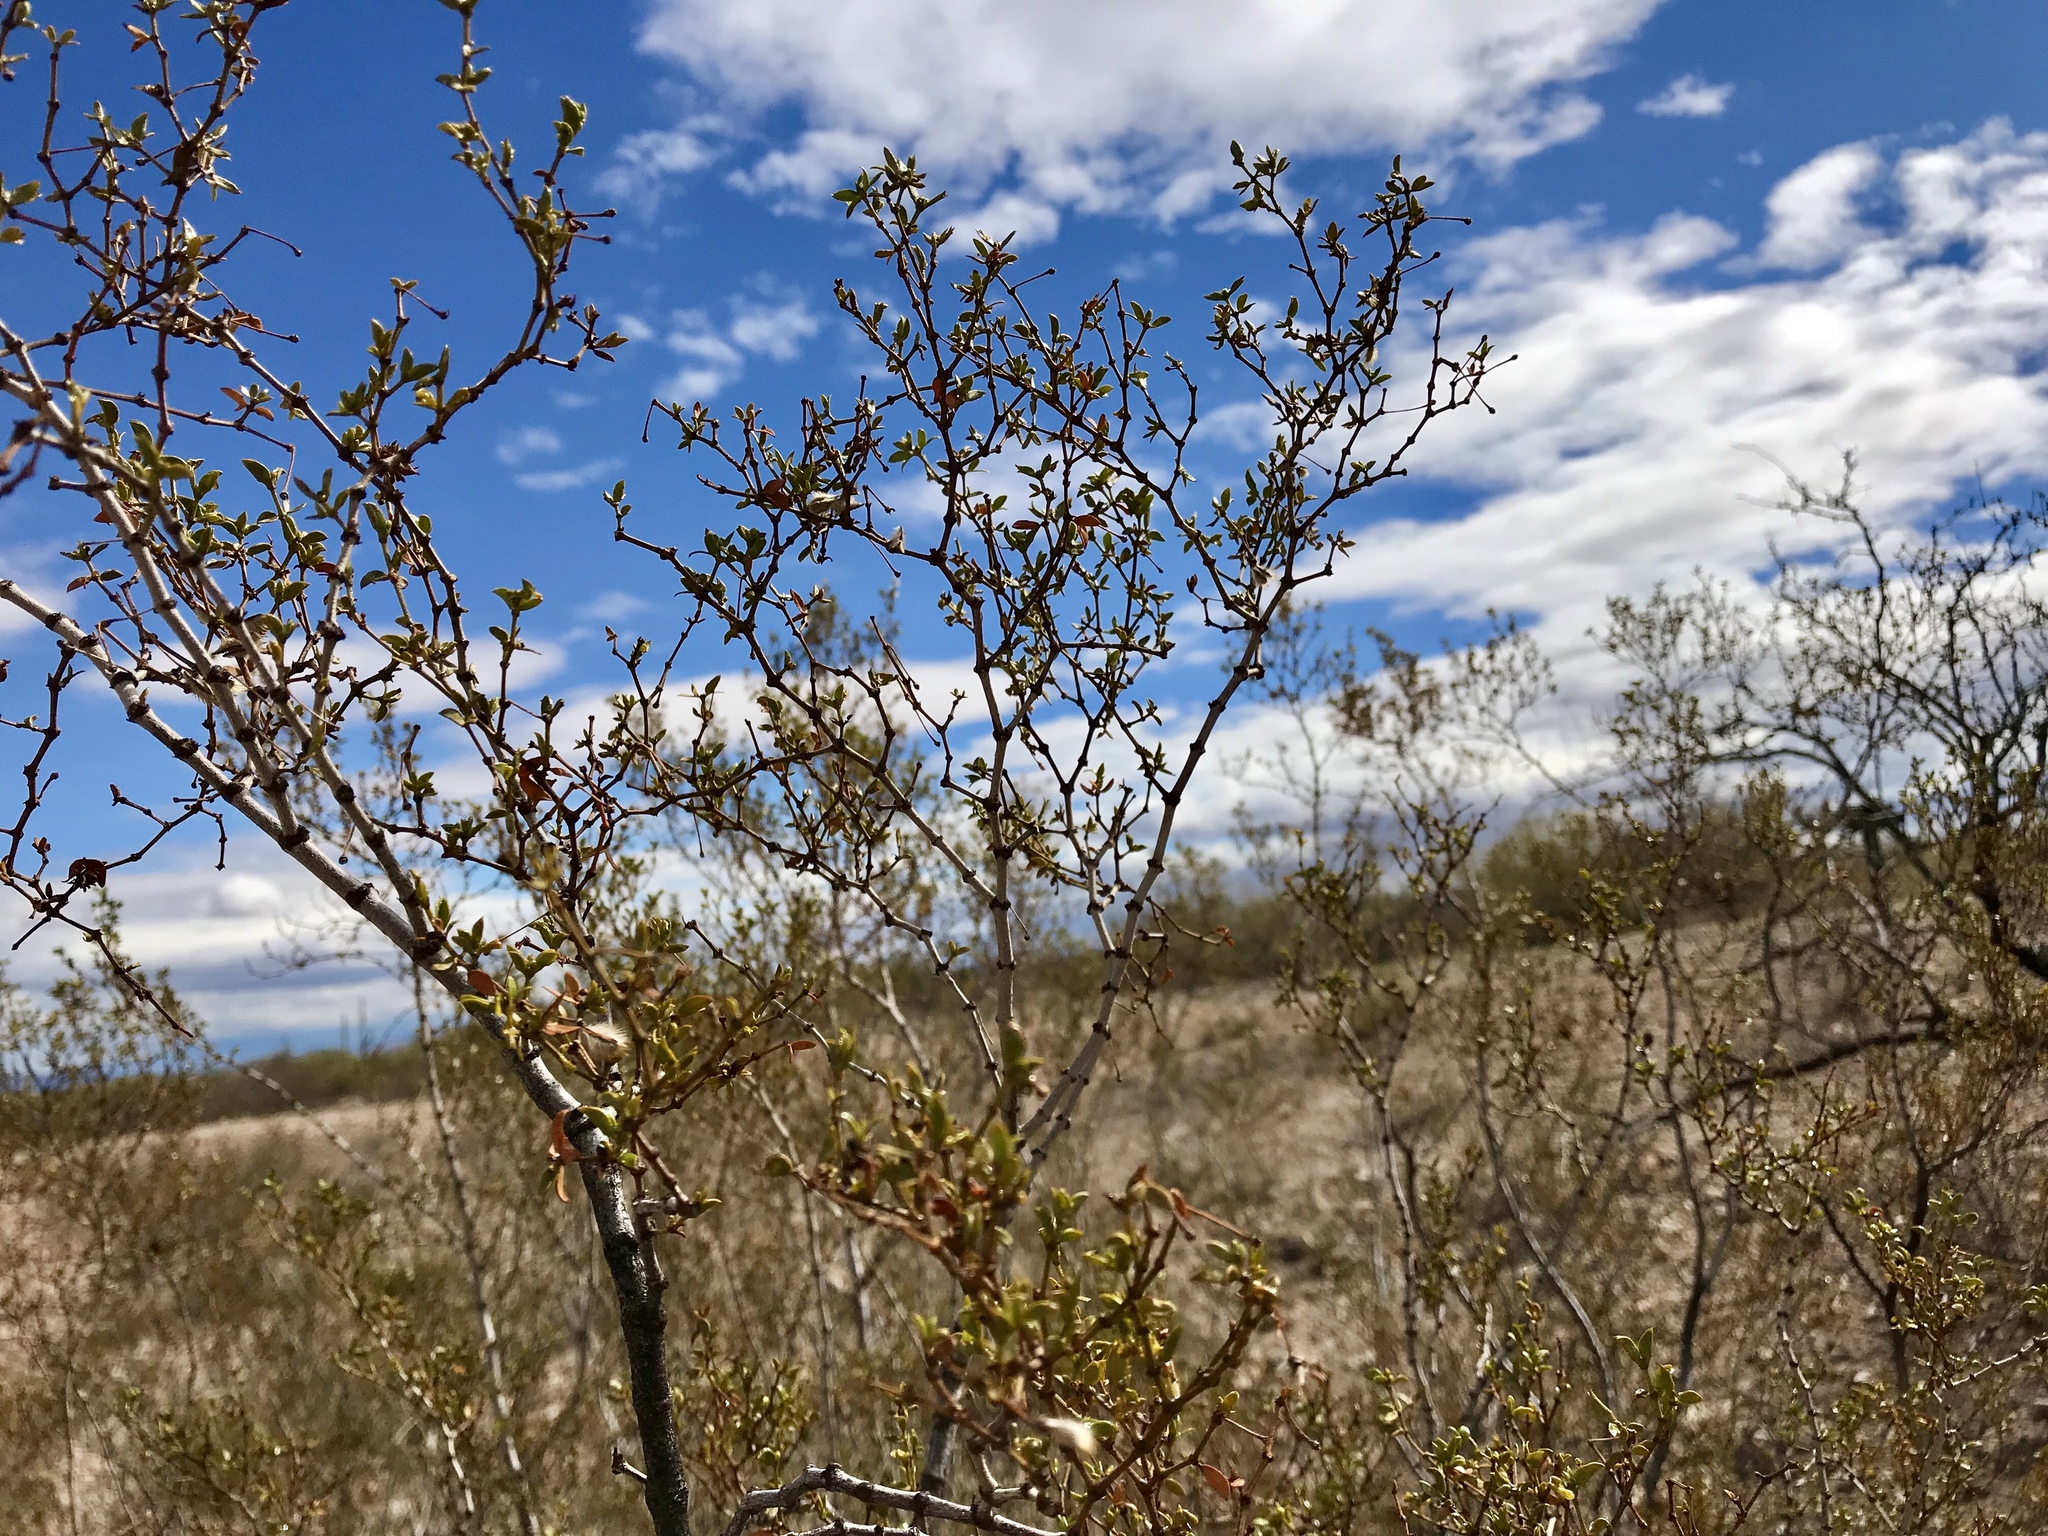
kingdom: Plantae
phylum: Tracheophyta
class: Magnoliopsida
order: Zygophyllales
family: Zygophyllaceae
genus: Larrea
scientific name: Larrea tridentata
